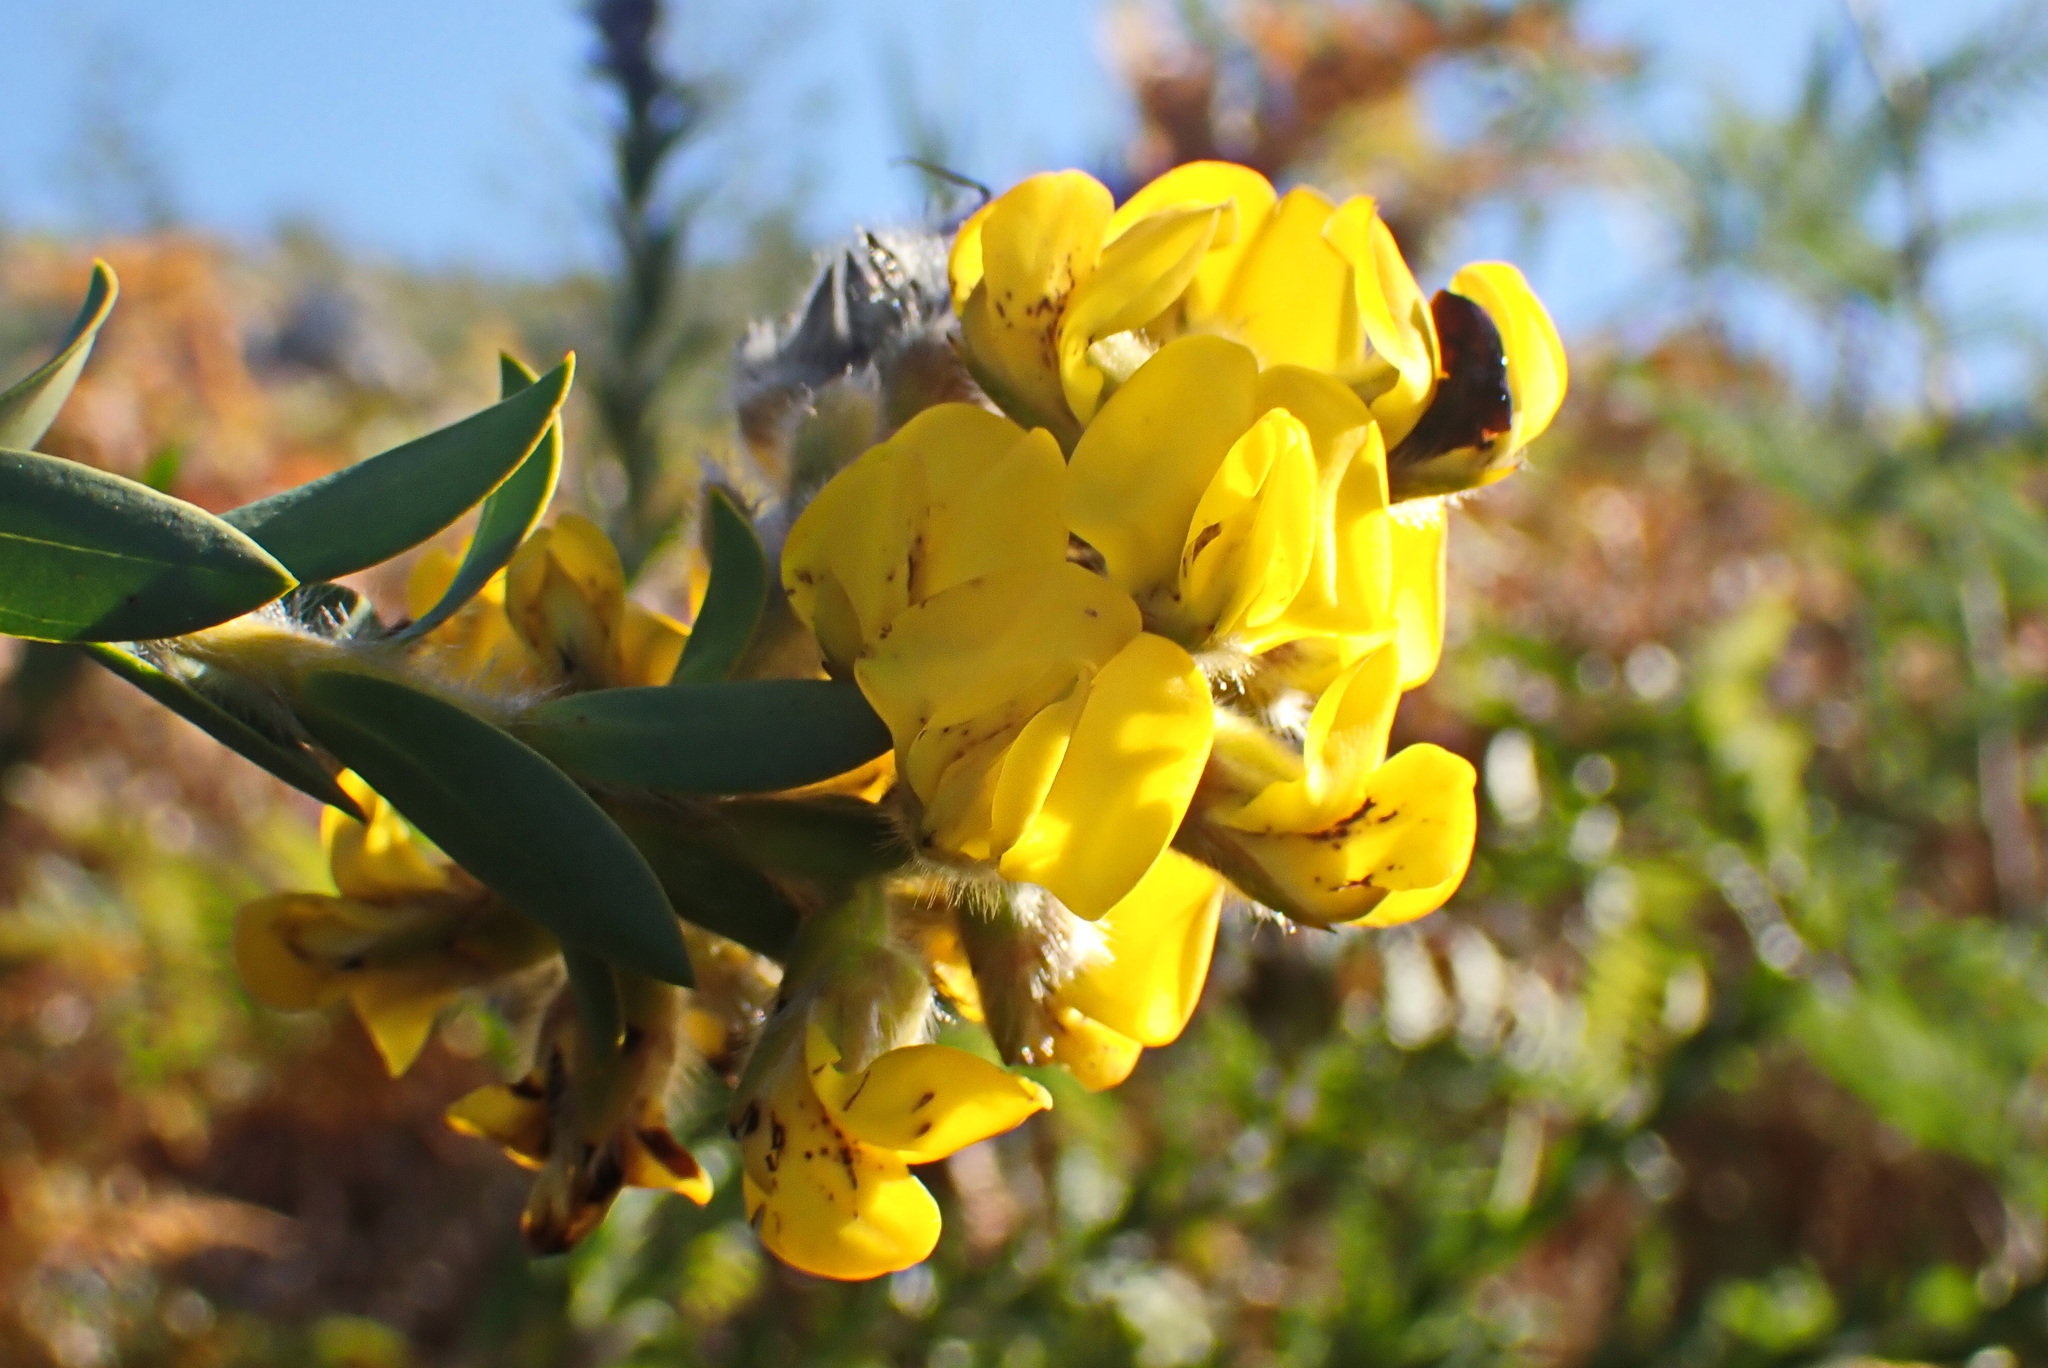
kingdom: Plantae
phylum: Tracheophyta
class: Magnoliopsida
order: Fabales
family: Fabaceae
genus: Liparia
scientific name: Liparia hirsuta
